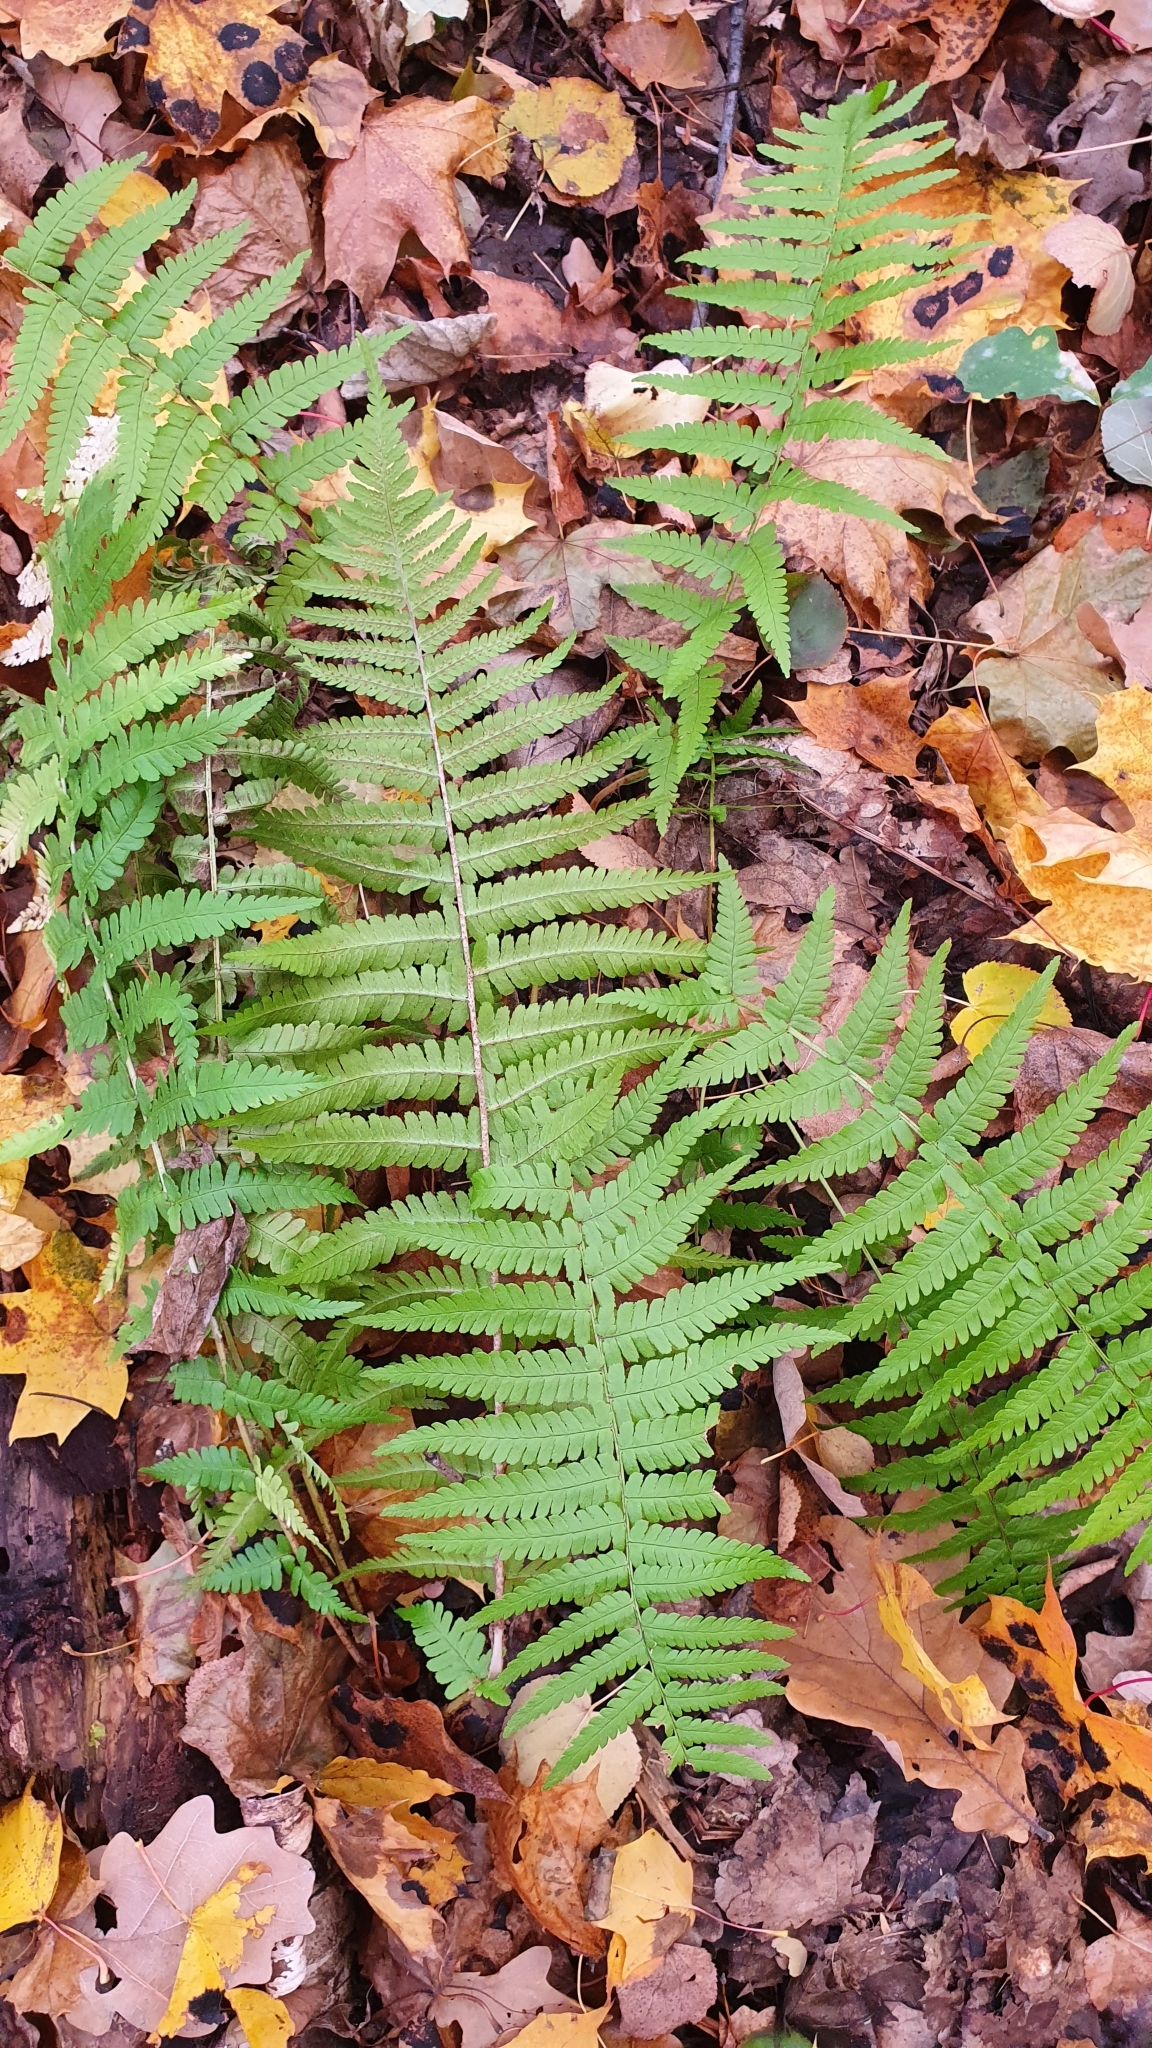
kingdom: Plantae
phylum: Tracheophyta
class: Polypodiopsida
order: Polypodiales
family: Dryopteridaceae
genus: Dryopteris
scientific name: Dryopteris filix-mas
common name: Male fern
